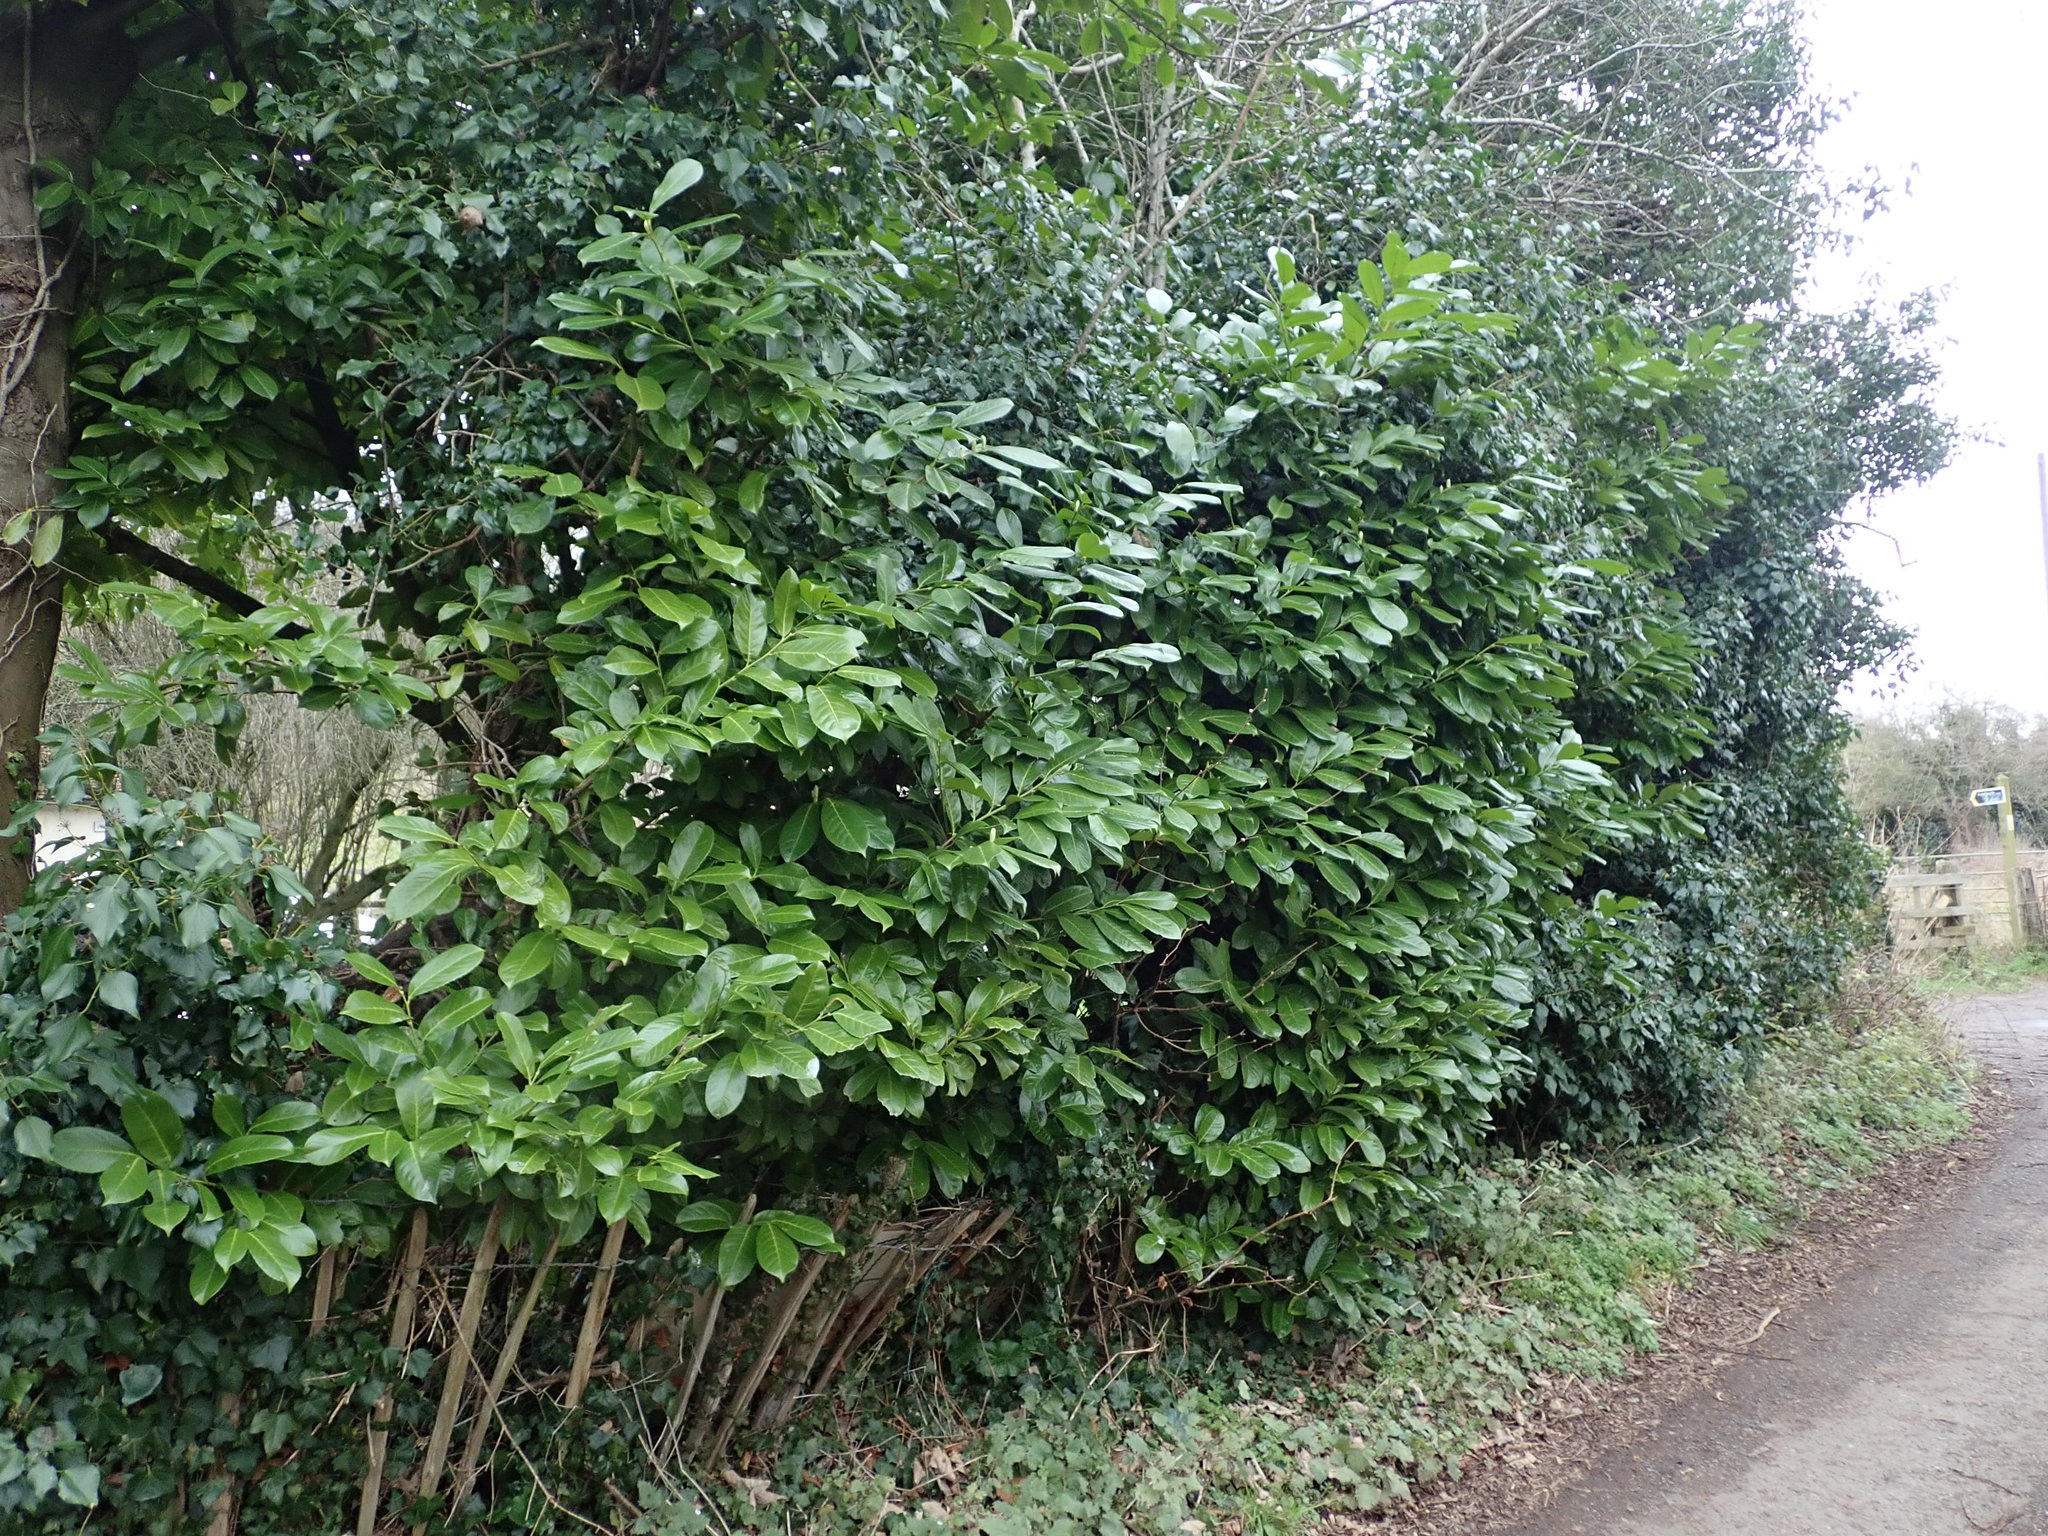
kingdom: Plantae
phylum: Tracheophyta
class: Magnoliopsida
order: Rosales
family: Rosaceae
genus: Prunus
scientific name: Prunus laurocerasus
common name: Cherry laurel
